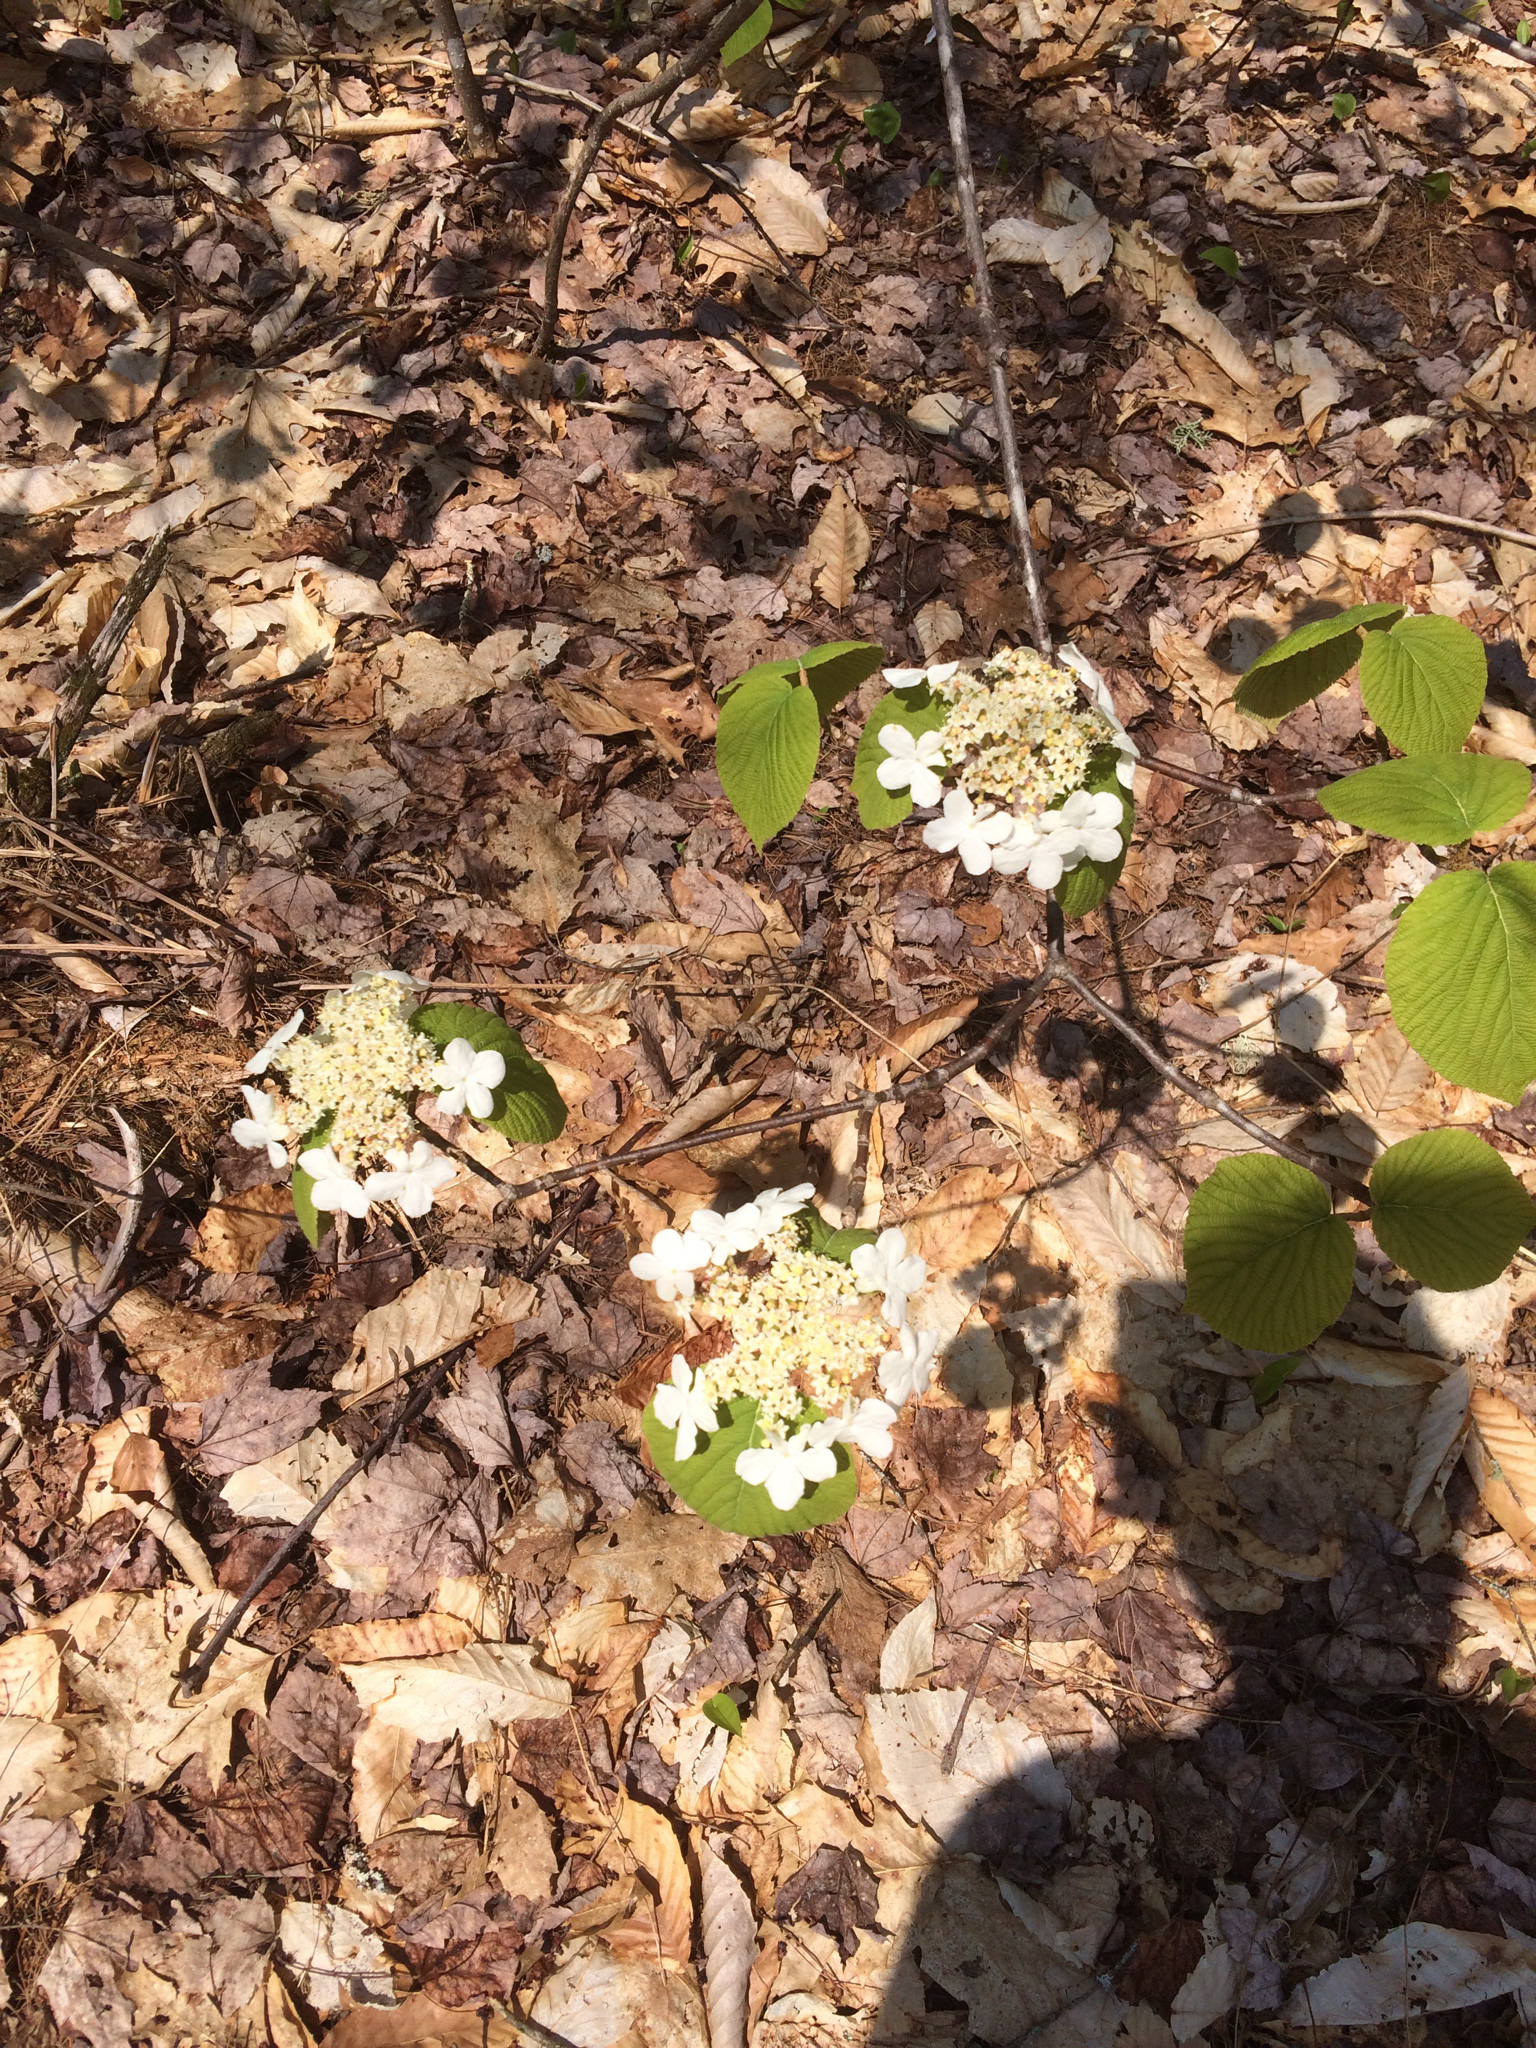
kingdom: Plantae
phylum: Tracheophyta
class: Magnoliopsida
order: Dipsacales
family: Viburnaceae
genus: Viburnum
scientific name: Viburnum lantanoides
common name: Hobblebush
